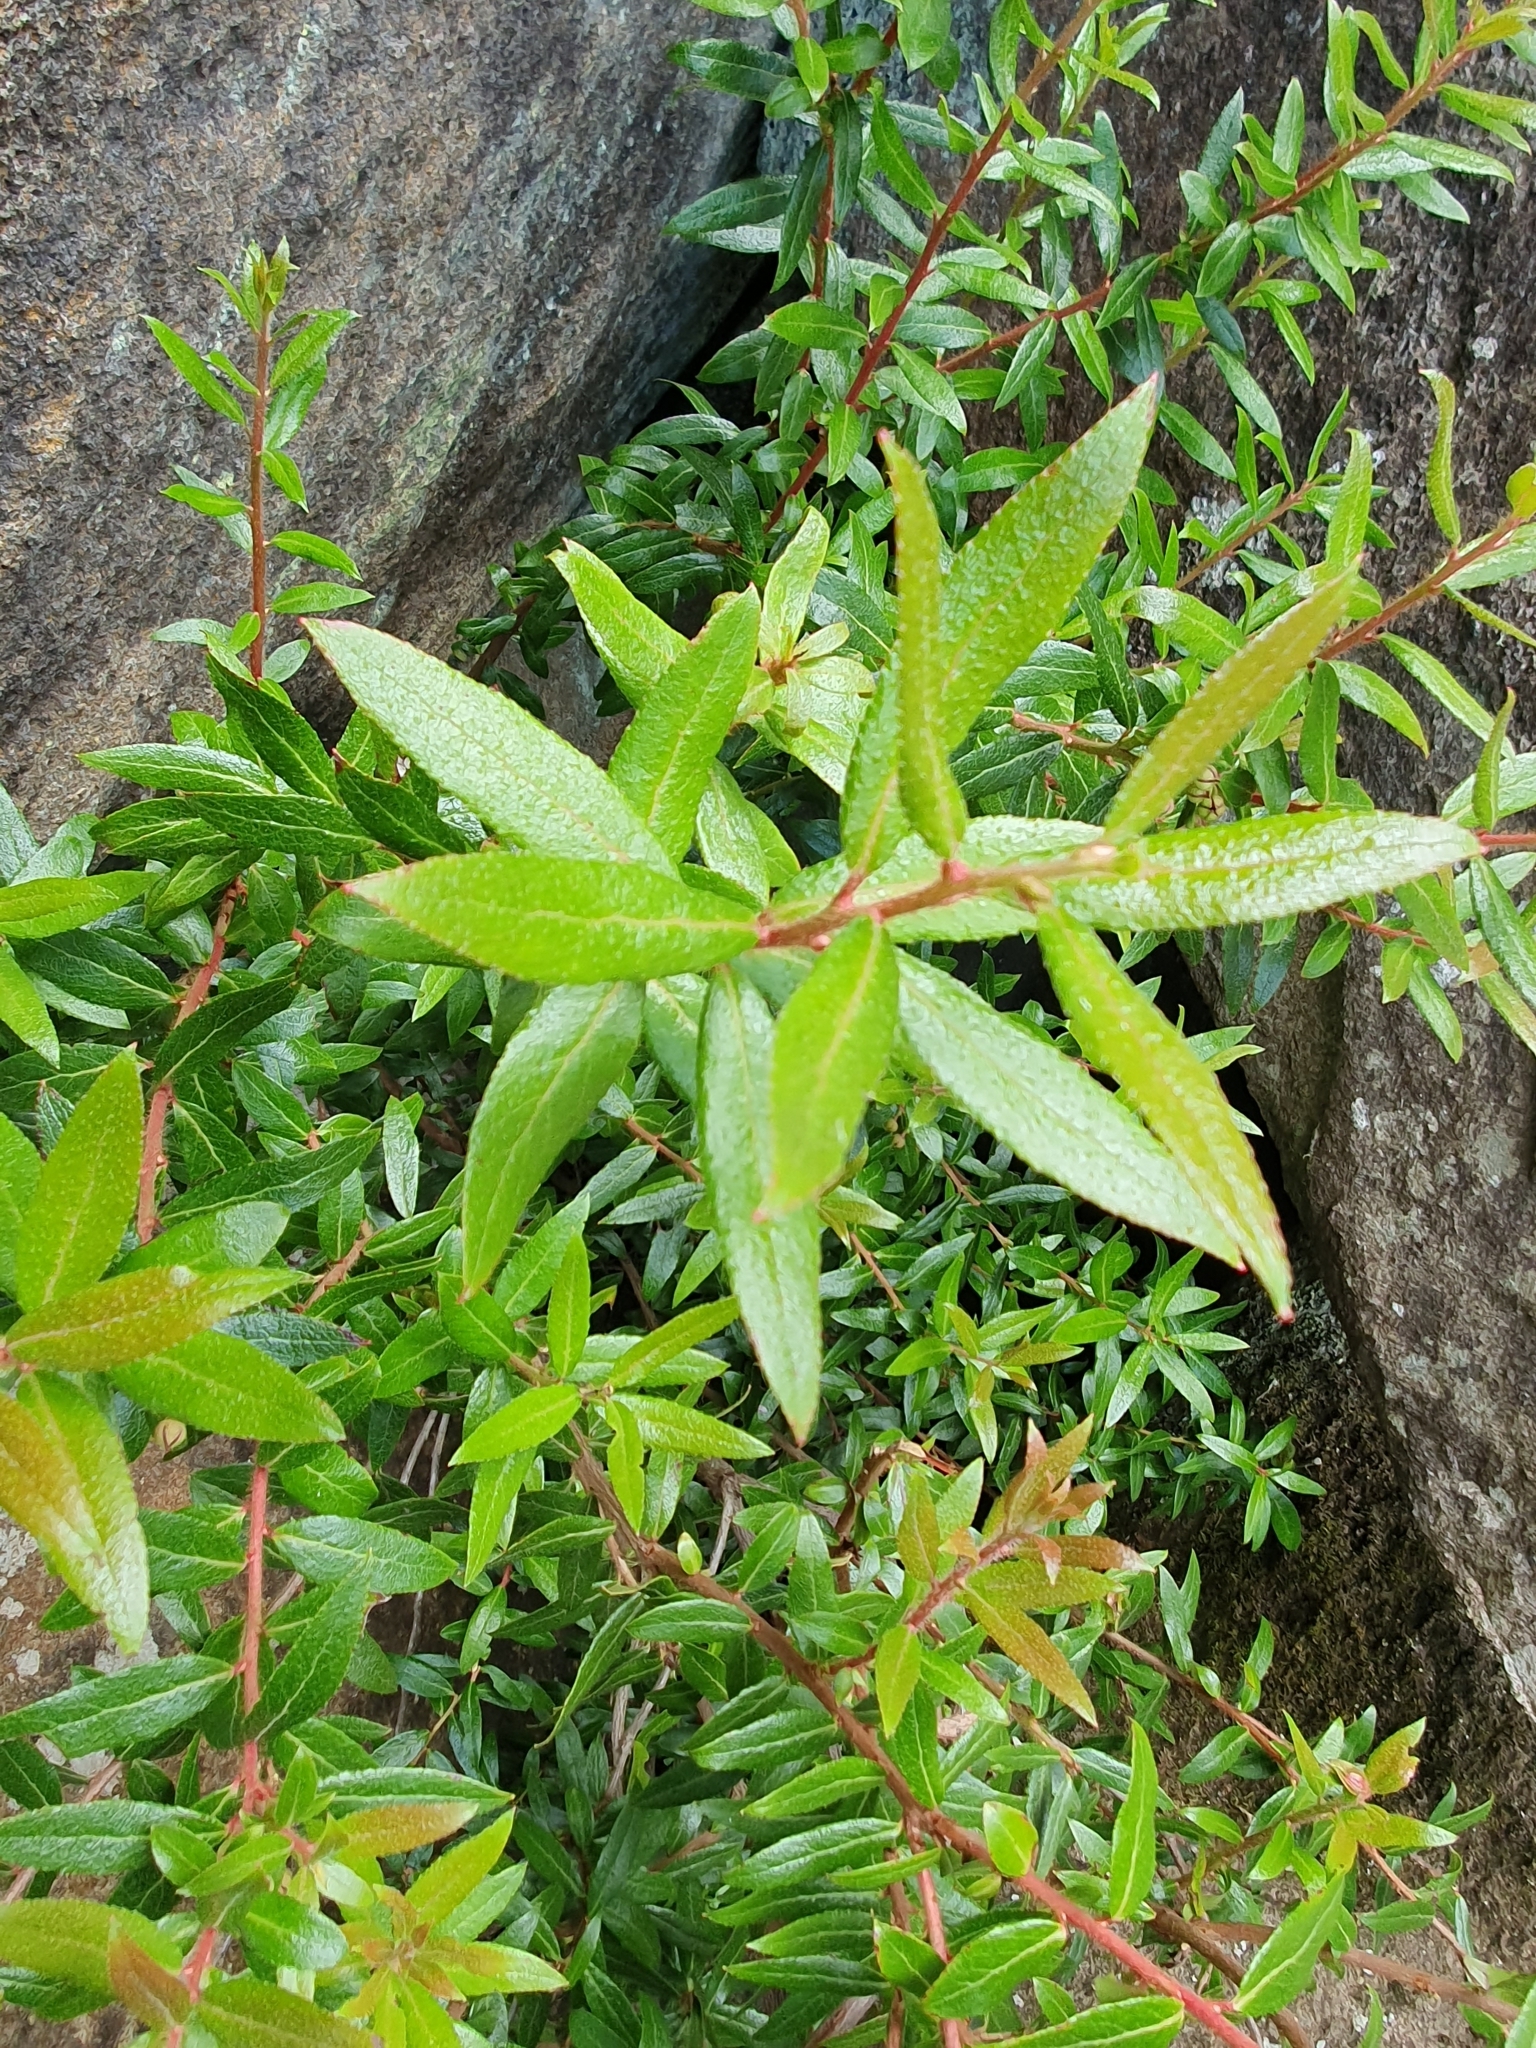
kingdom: Plantae
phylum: Tracheophyta
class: Magnoliopsida
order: Ericales
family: Ericaceae
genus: Gaultheria
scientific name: Gaultheria hispida
